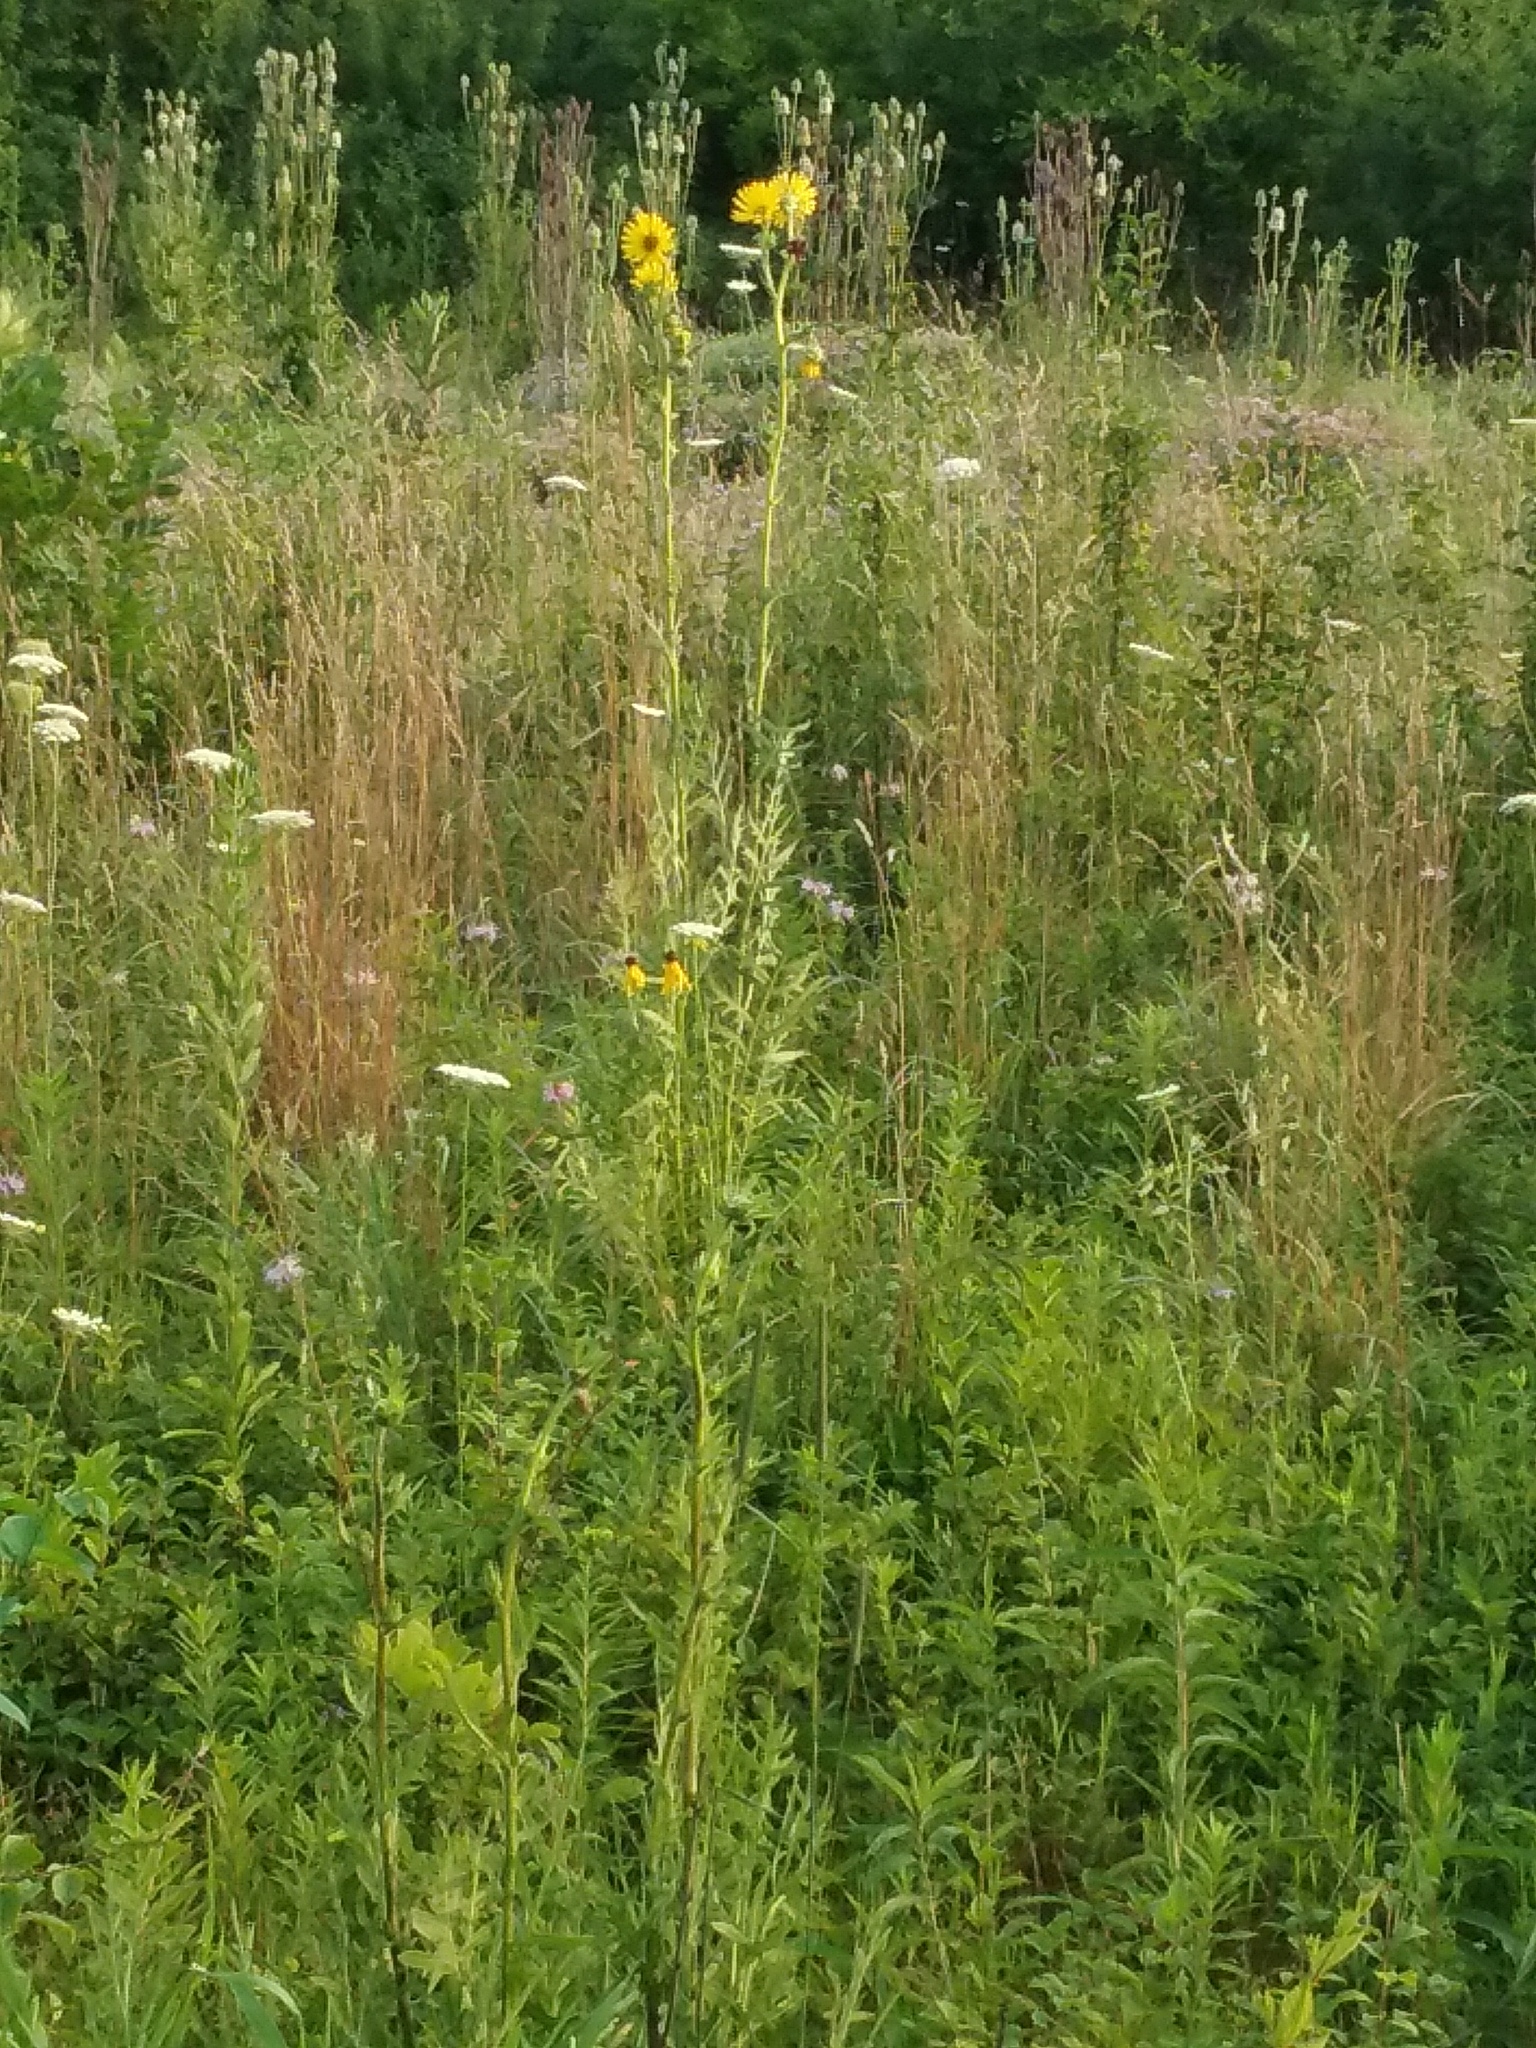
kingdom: Plantae
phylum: Tracheophyta
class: Magnoliopsida
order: Asterales
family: Asteraceae
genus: Silphium
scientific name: Silphium laciniatum
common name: Polarplant
